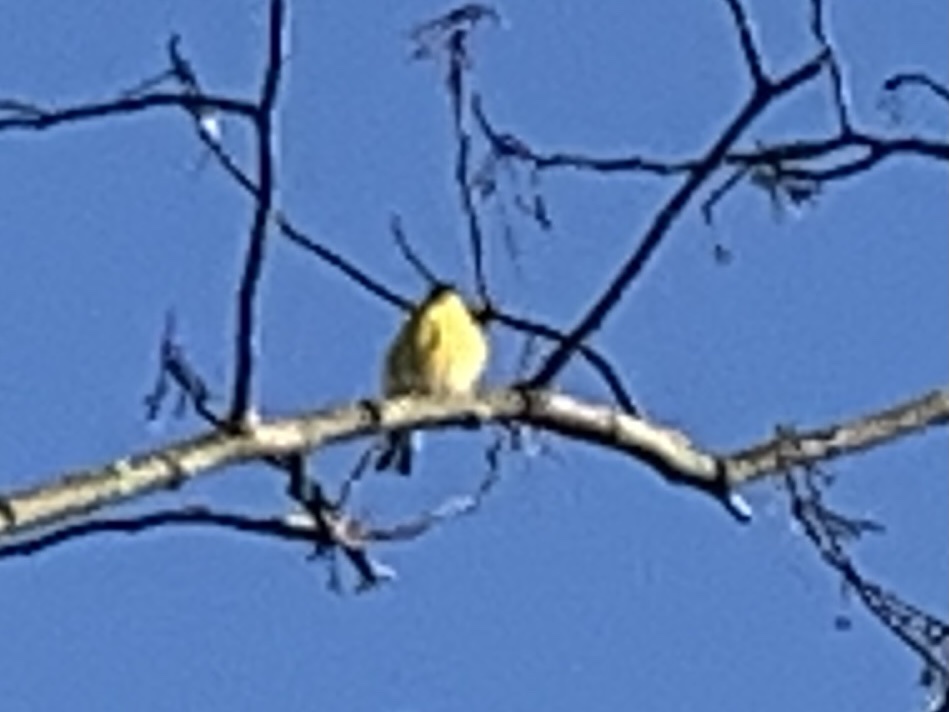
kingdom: Animalia
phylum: Chordata
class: Aves
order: Passeriformes
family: Fringillidae
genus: Spinus
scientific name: Spinus tristis
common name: American goldfinch
